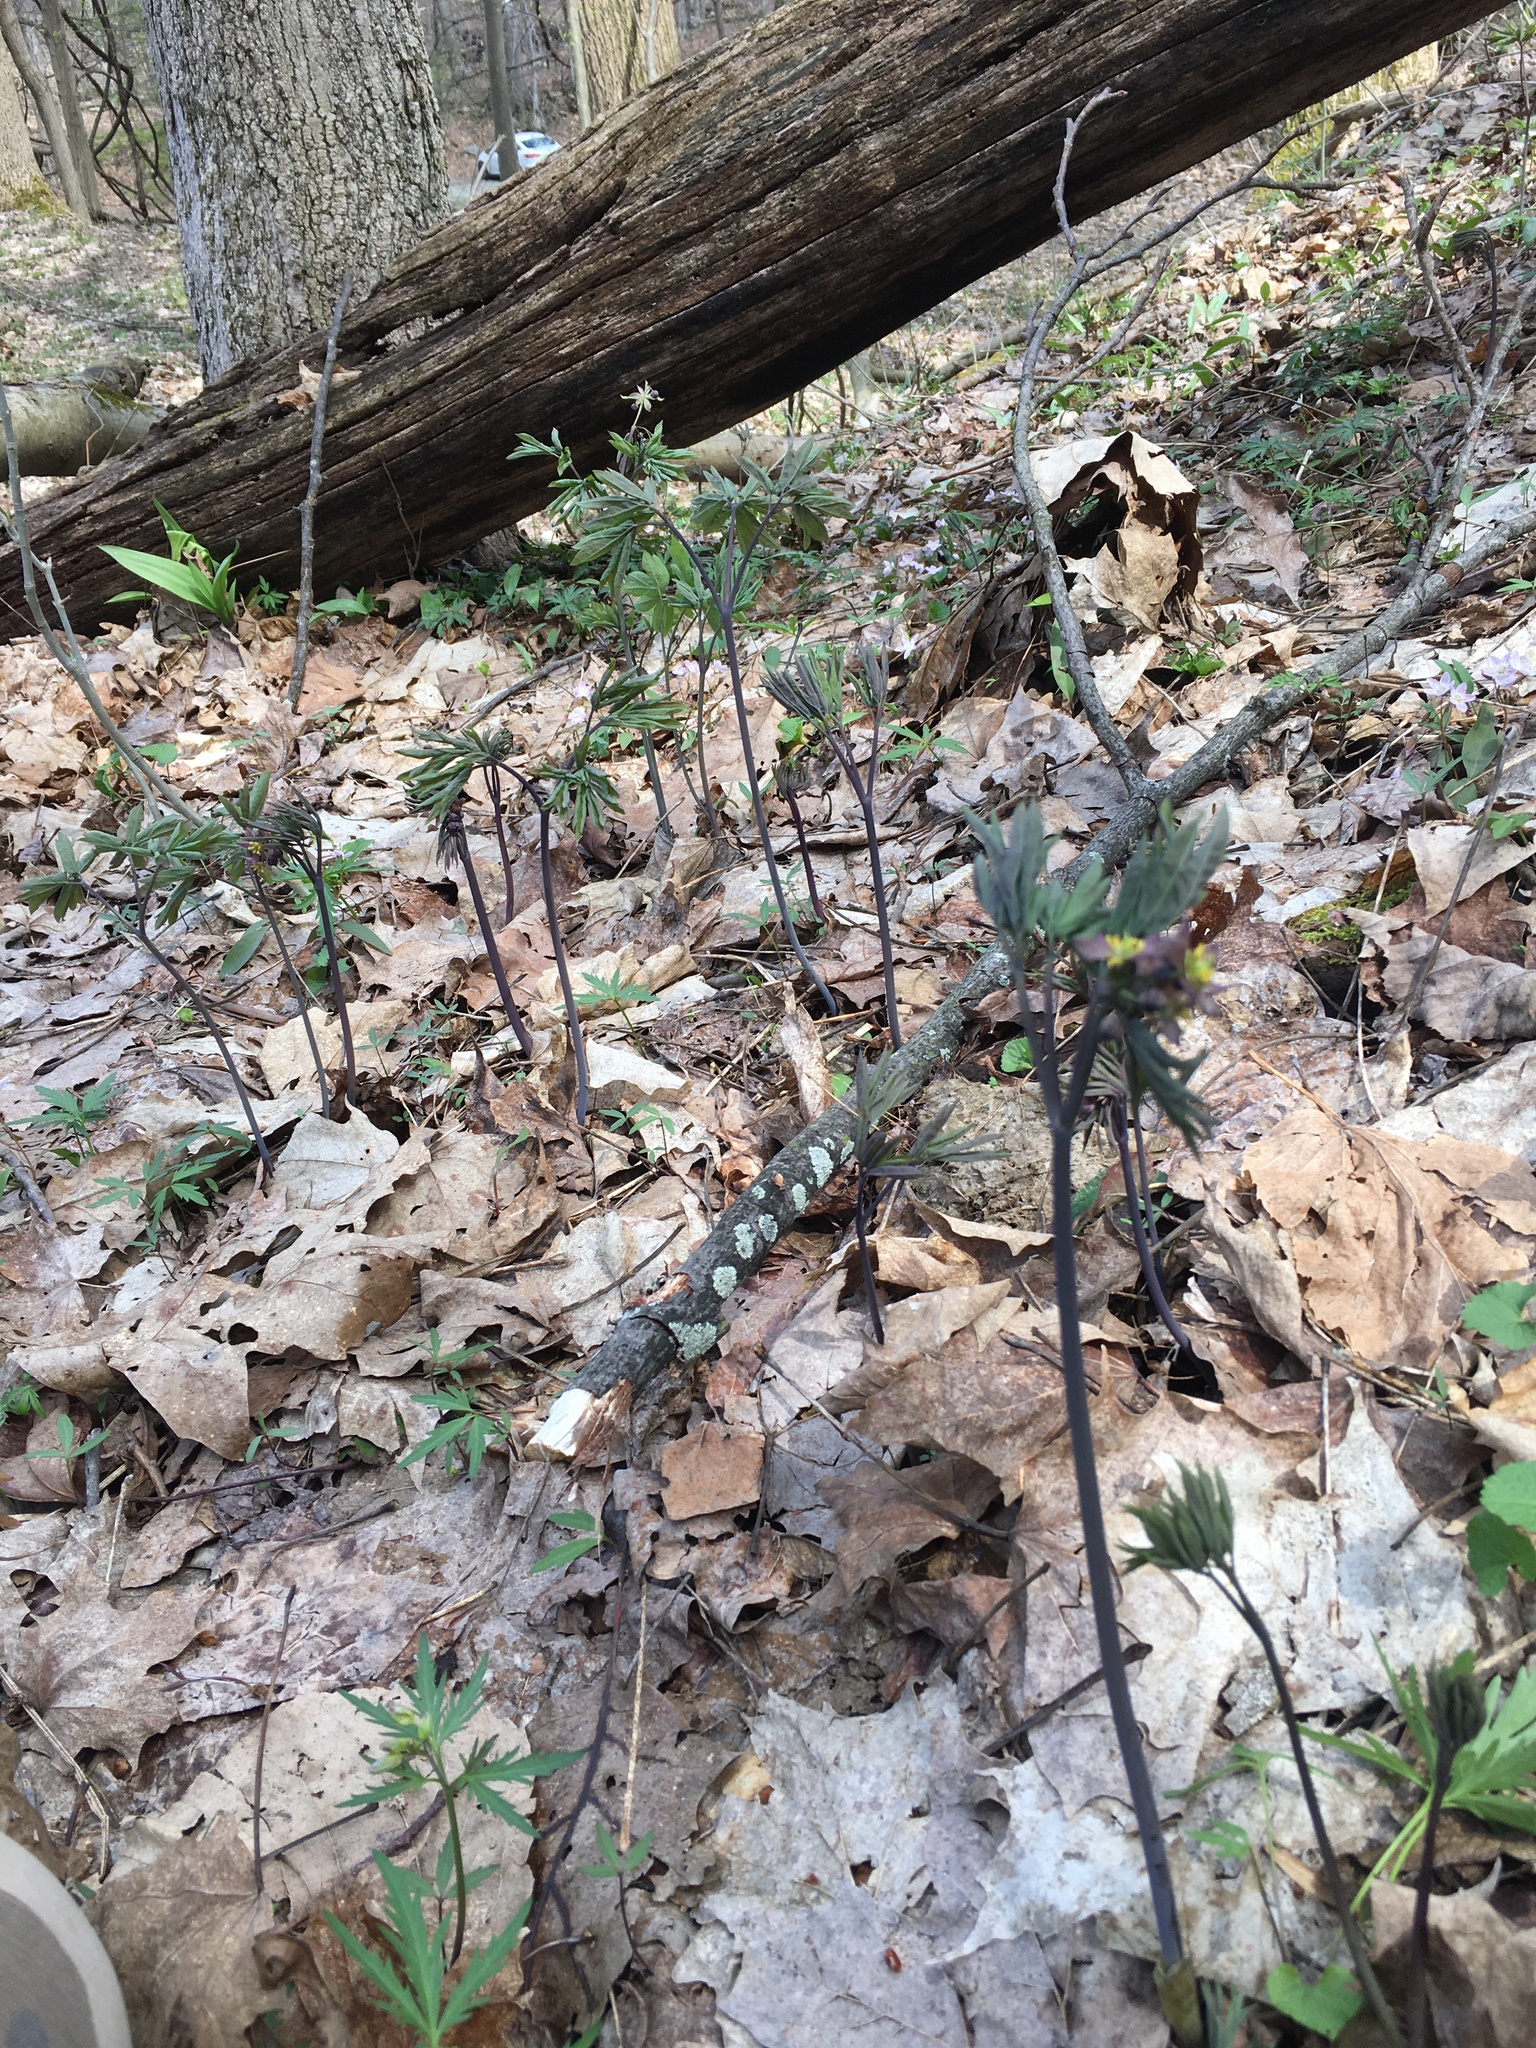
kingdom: Plantae
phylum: Tracheophyta
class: Magnoliopsida
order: Ranunculales
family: Berberidaceae
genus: Caulophyllum
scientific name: Caulophyllum giganteum
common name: Blue cohosh
